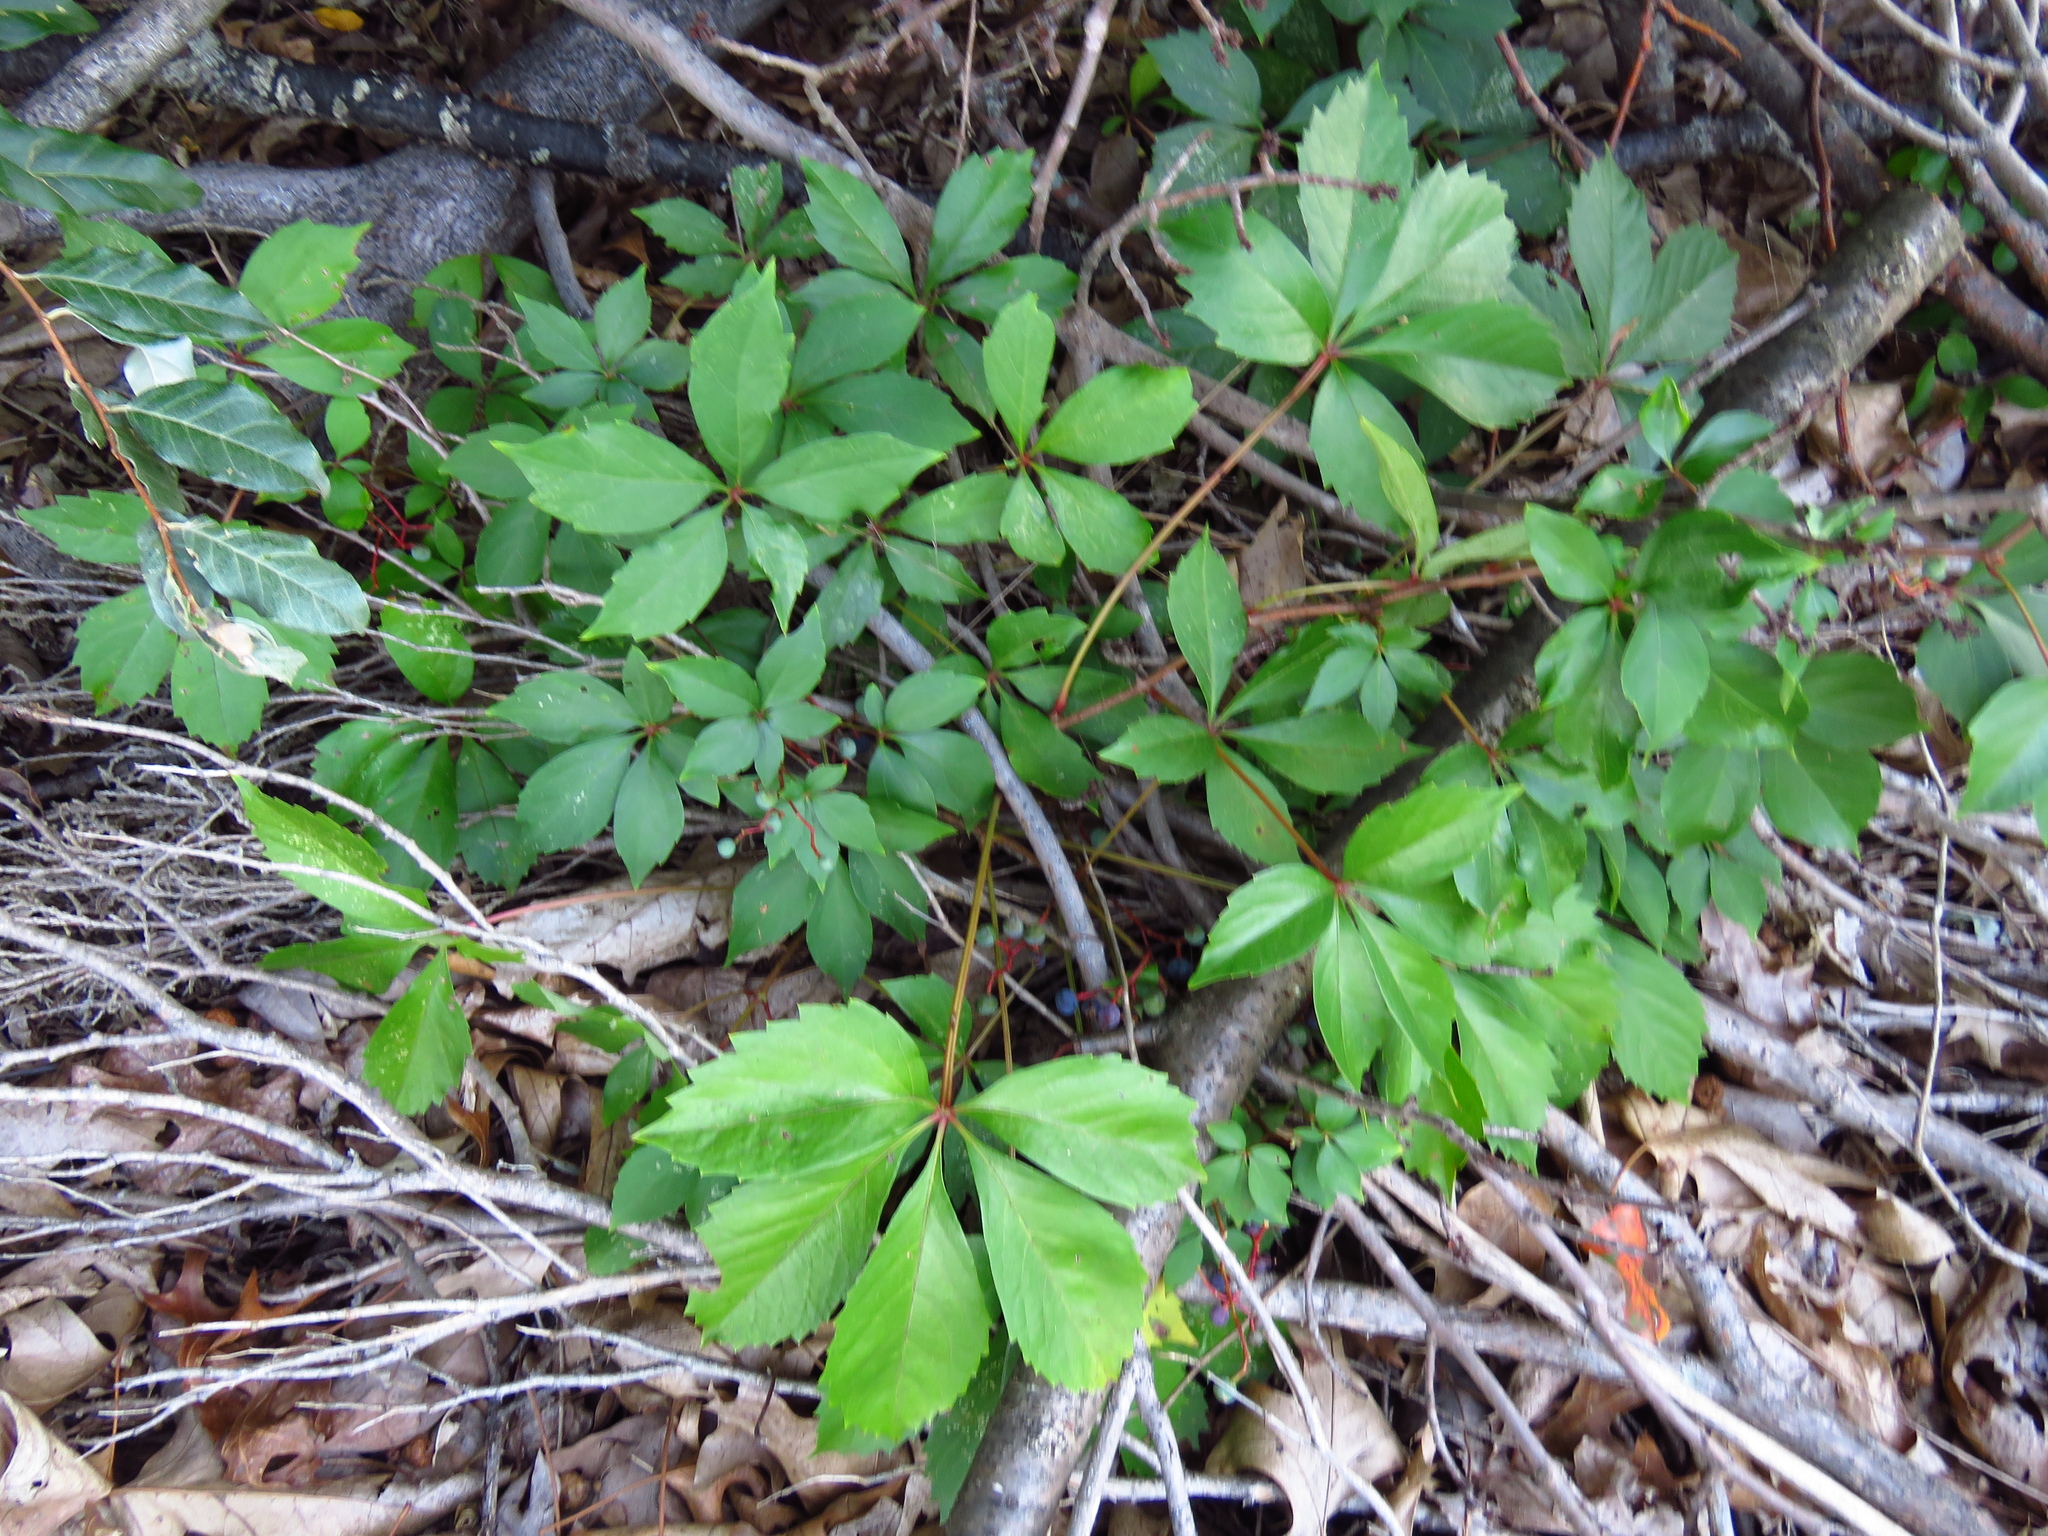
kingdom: Plantae
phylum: Tracheophyta
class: Magnoliopsida
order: Vitales
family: Vitaceae
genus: Parthenocissus
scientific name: Parthenocissus quinquefolia
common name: Virginia-creeper
